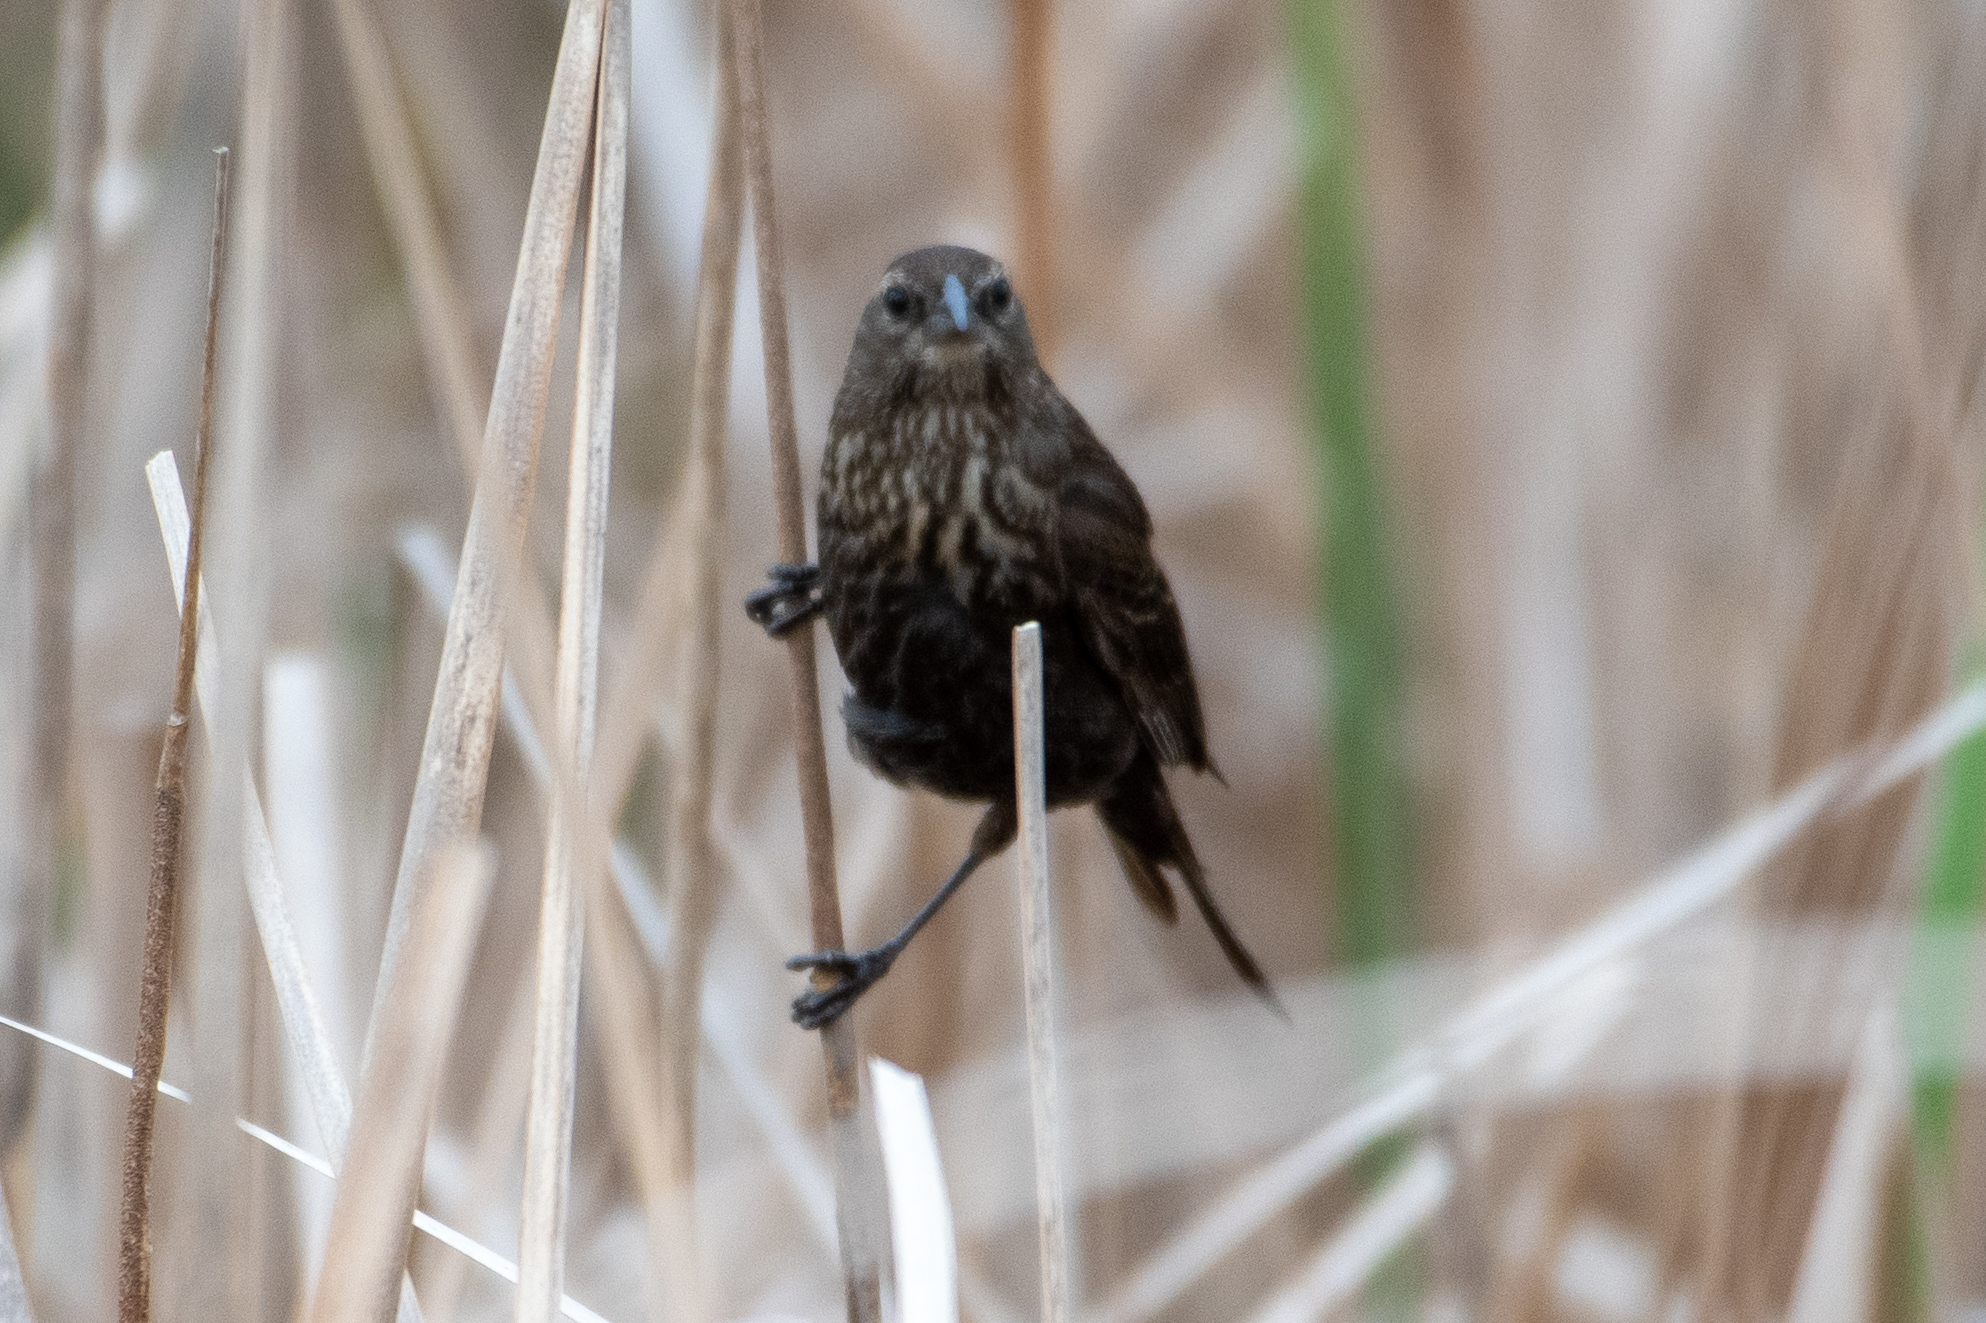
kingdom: Animalia
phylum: Chordata
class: Aves
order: Passeriformes
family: Icteridae
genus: Agelaius
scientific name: Agelaius phoeniceus
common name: Red-winged blackbird
